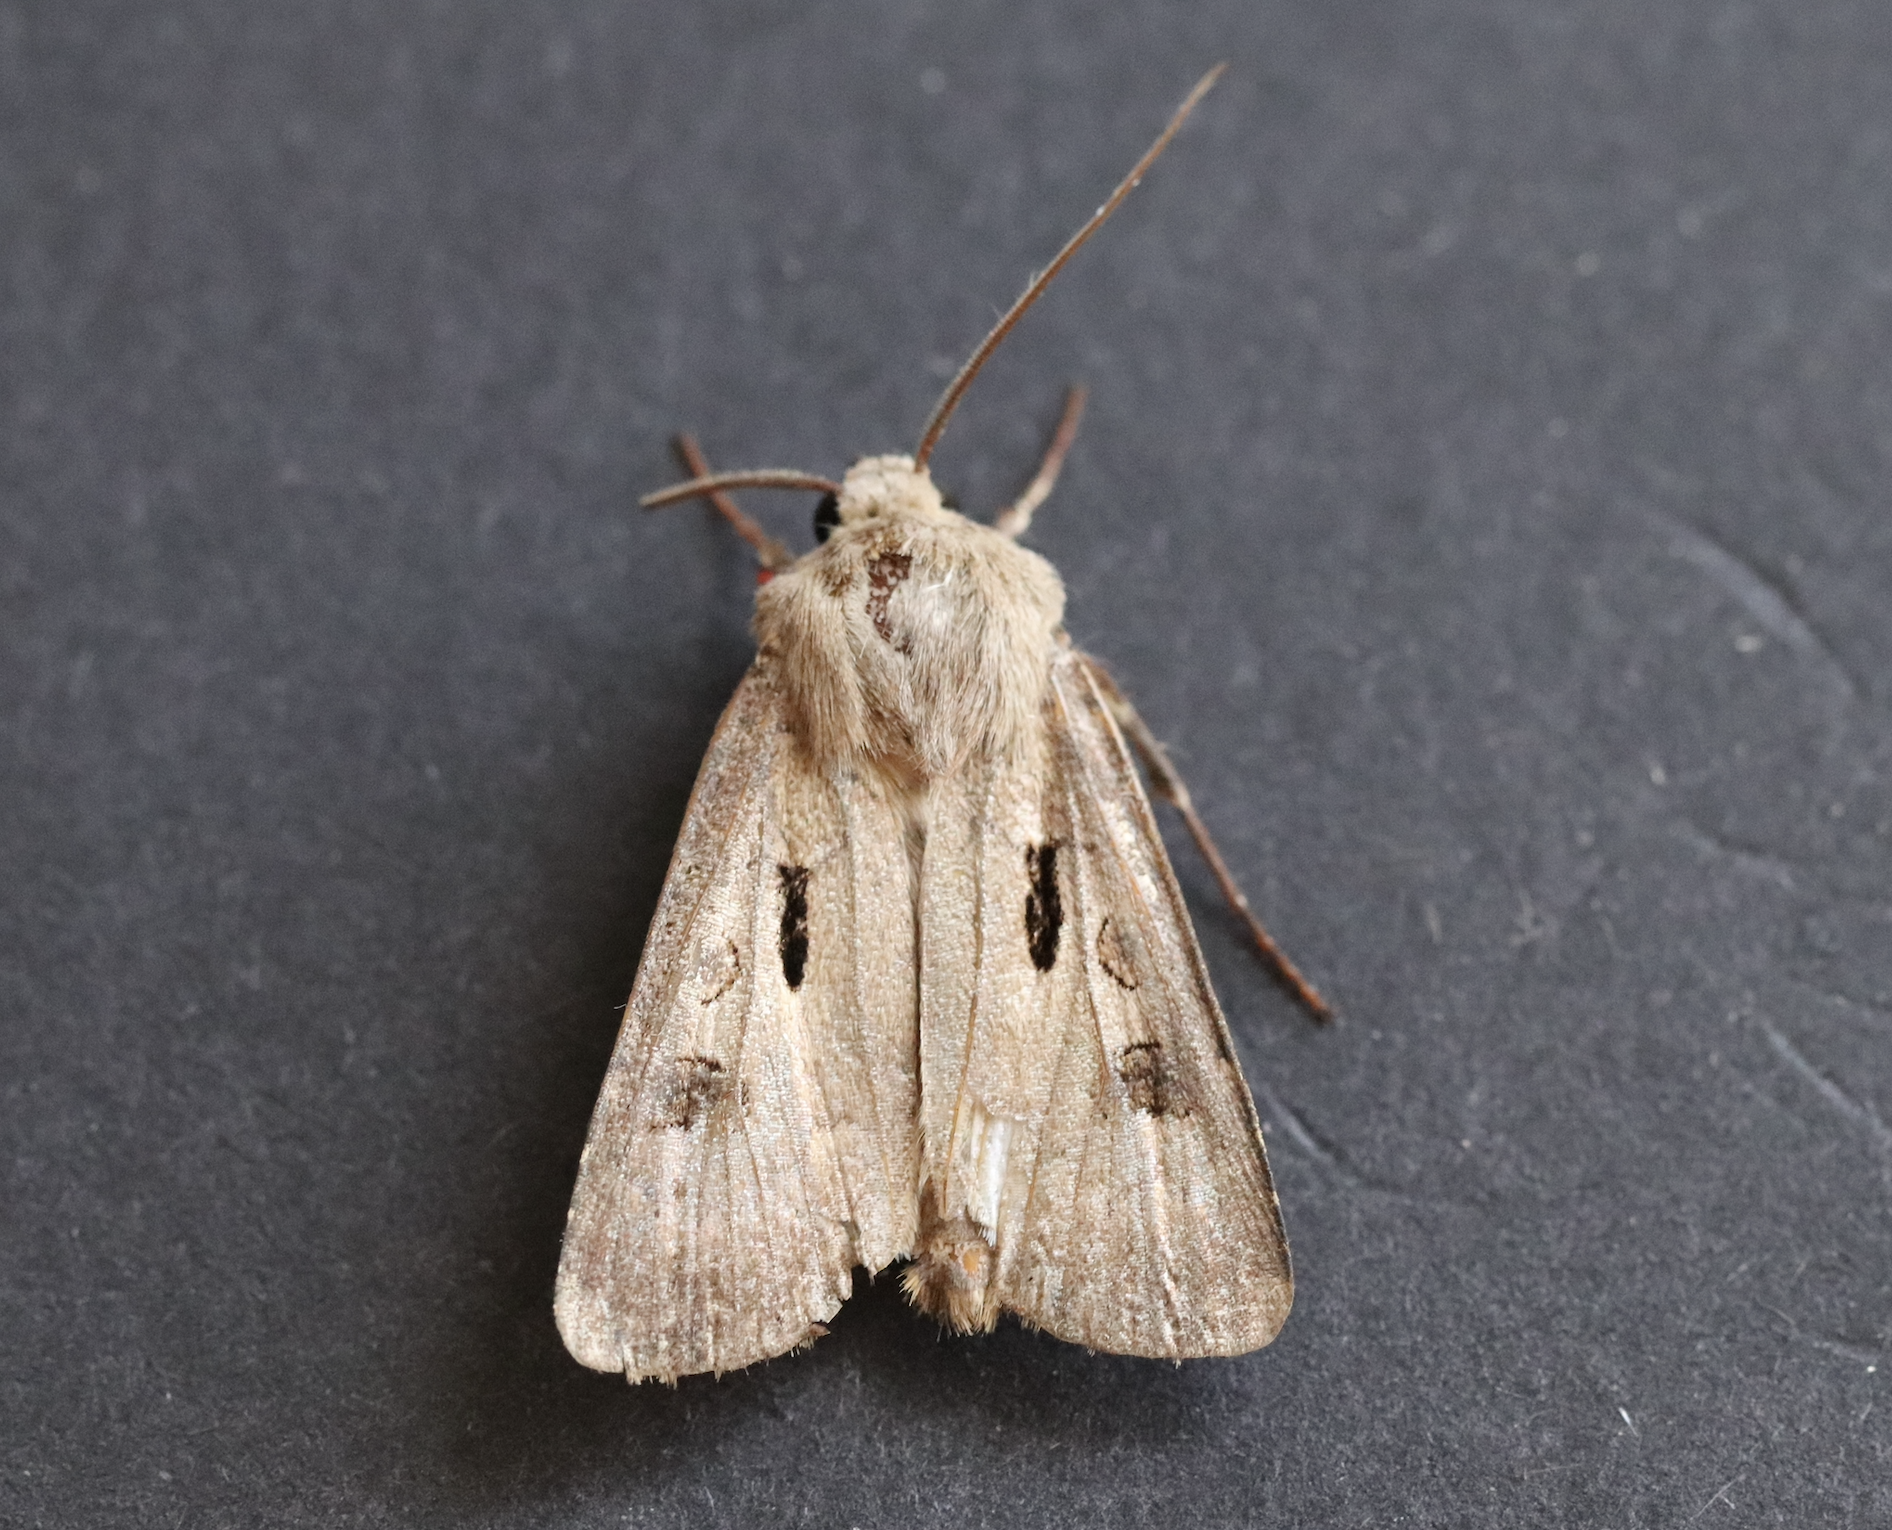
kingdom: Animalia
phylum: Arthropoda
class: Insecta
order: Lepidoptera
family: Noctuidae
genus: Agrotis
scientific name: Agrotis exclamationis
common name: Heart and dart
